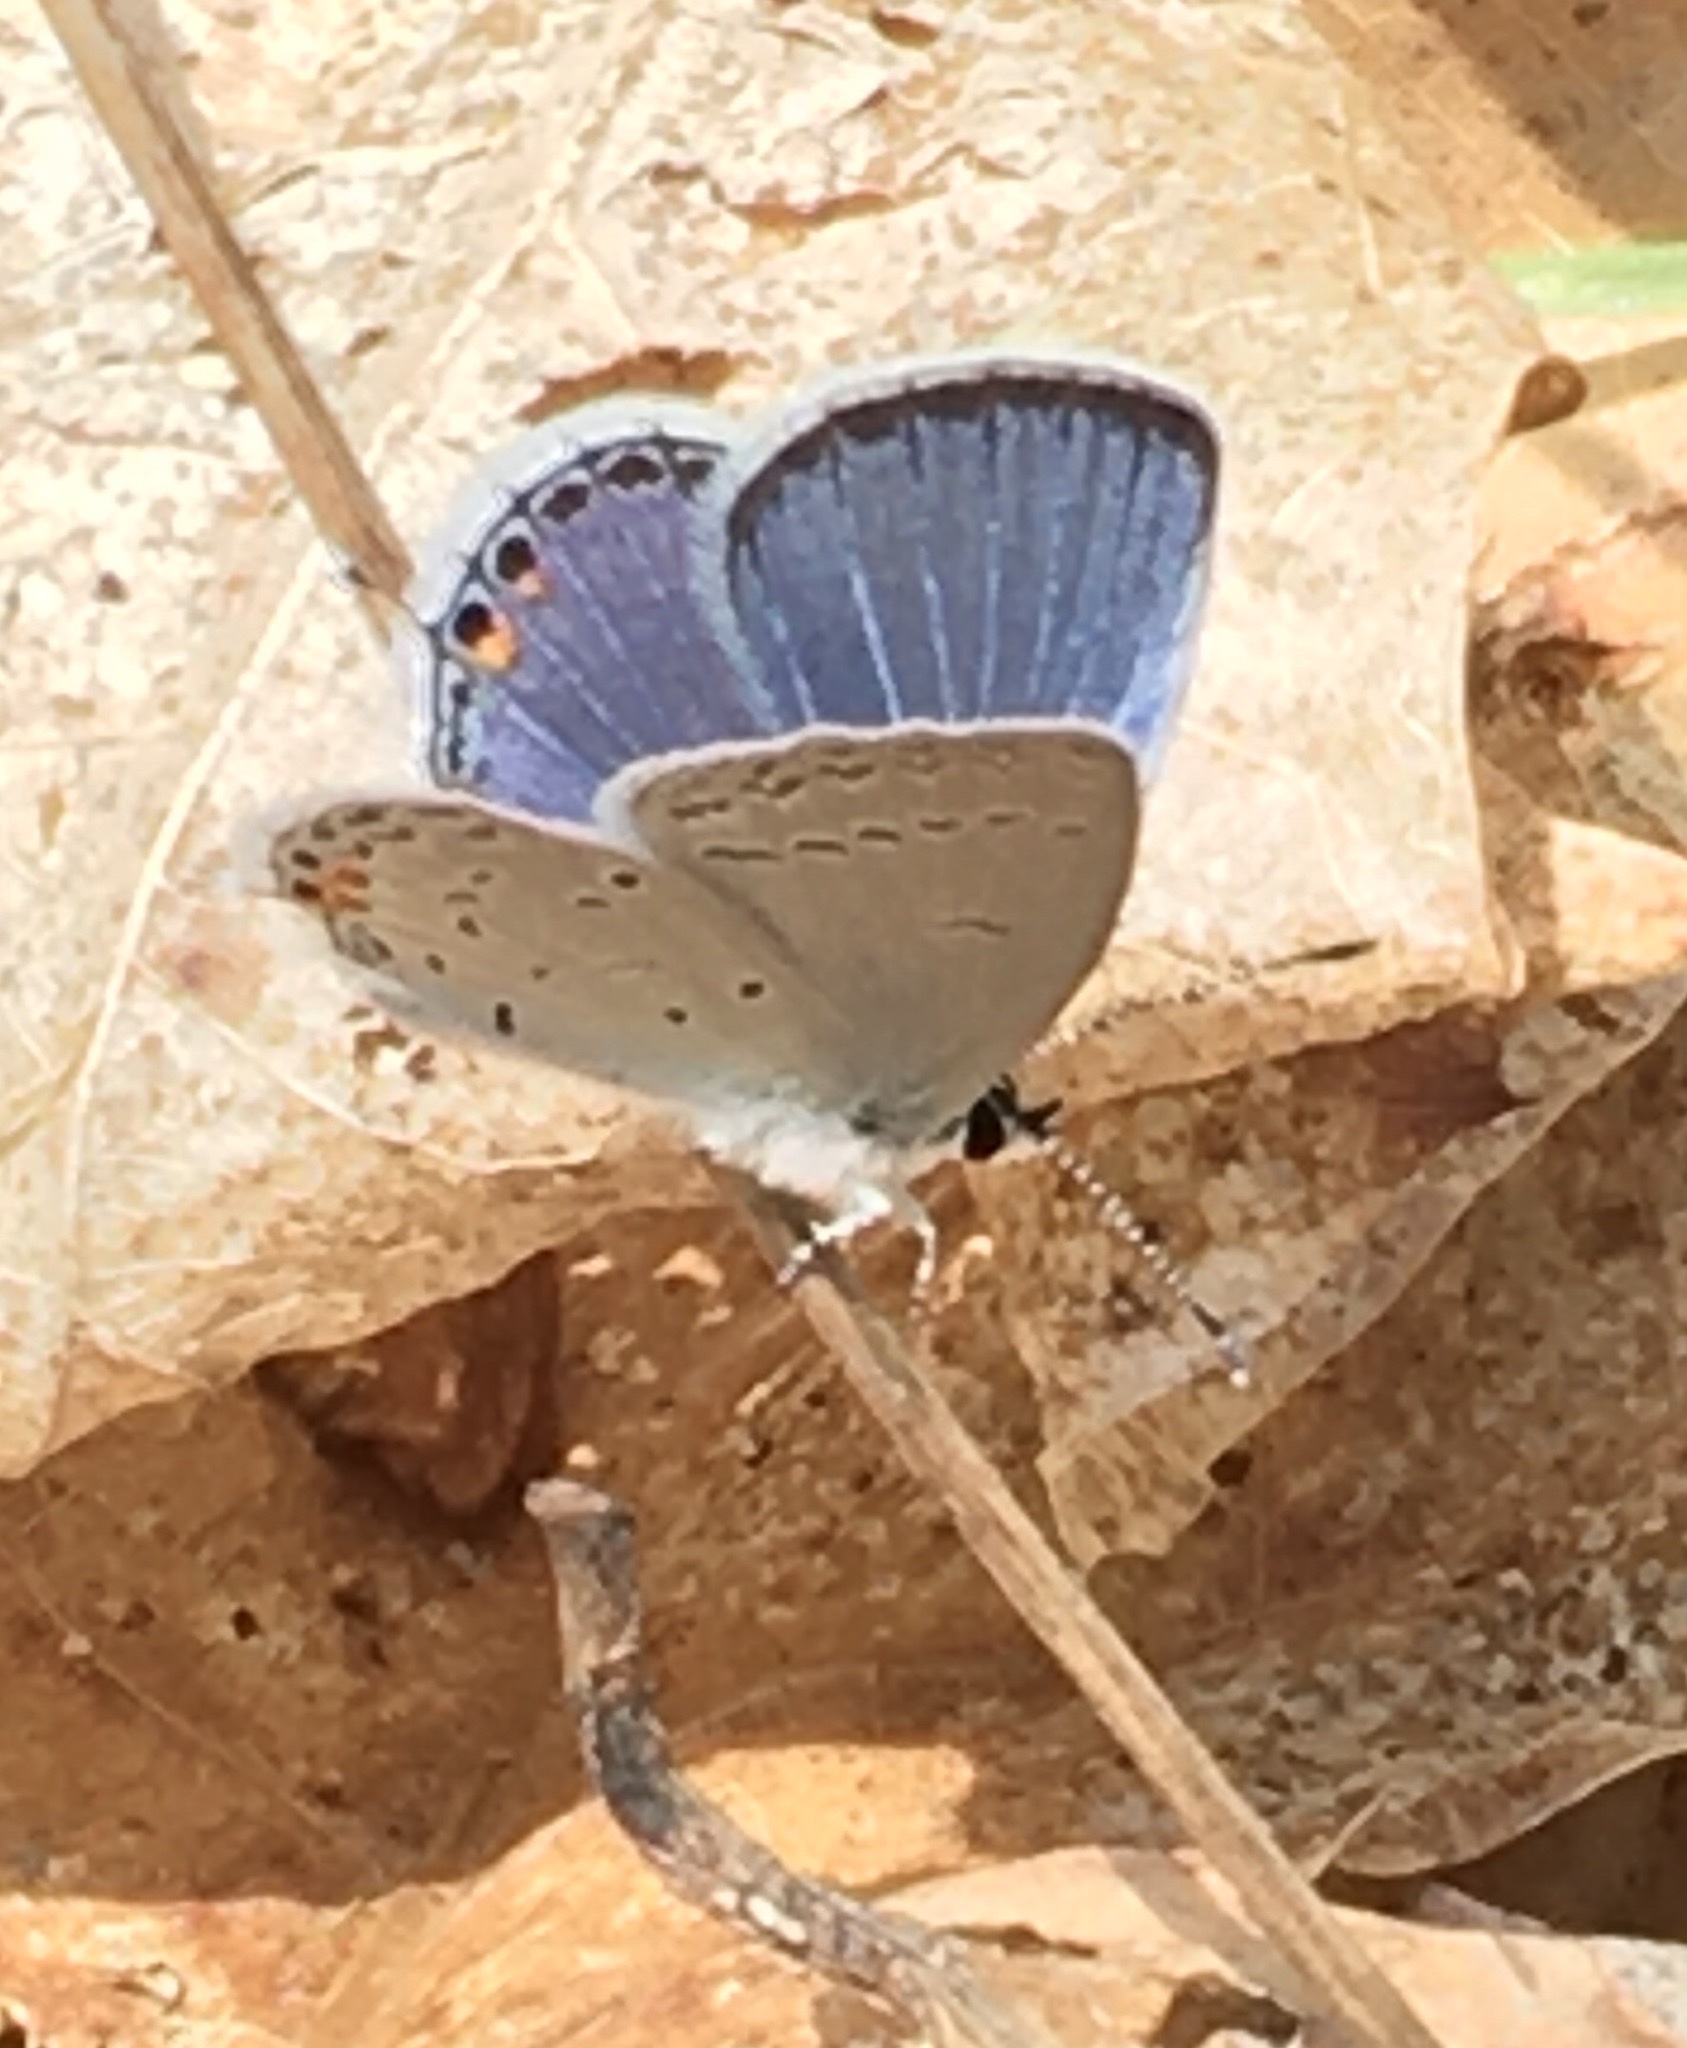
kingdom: Animalia
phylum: Arthropoda
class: Insecta
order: Lepidoptera
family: Lycaenidae
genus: Elkalyce
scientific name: Elkalyce comyntas
